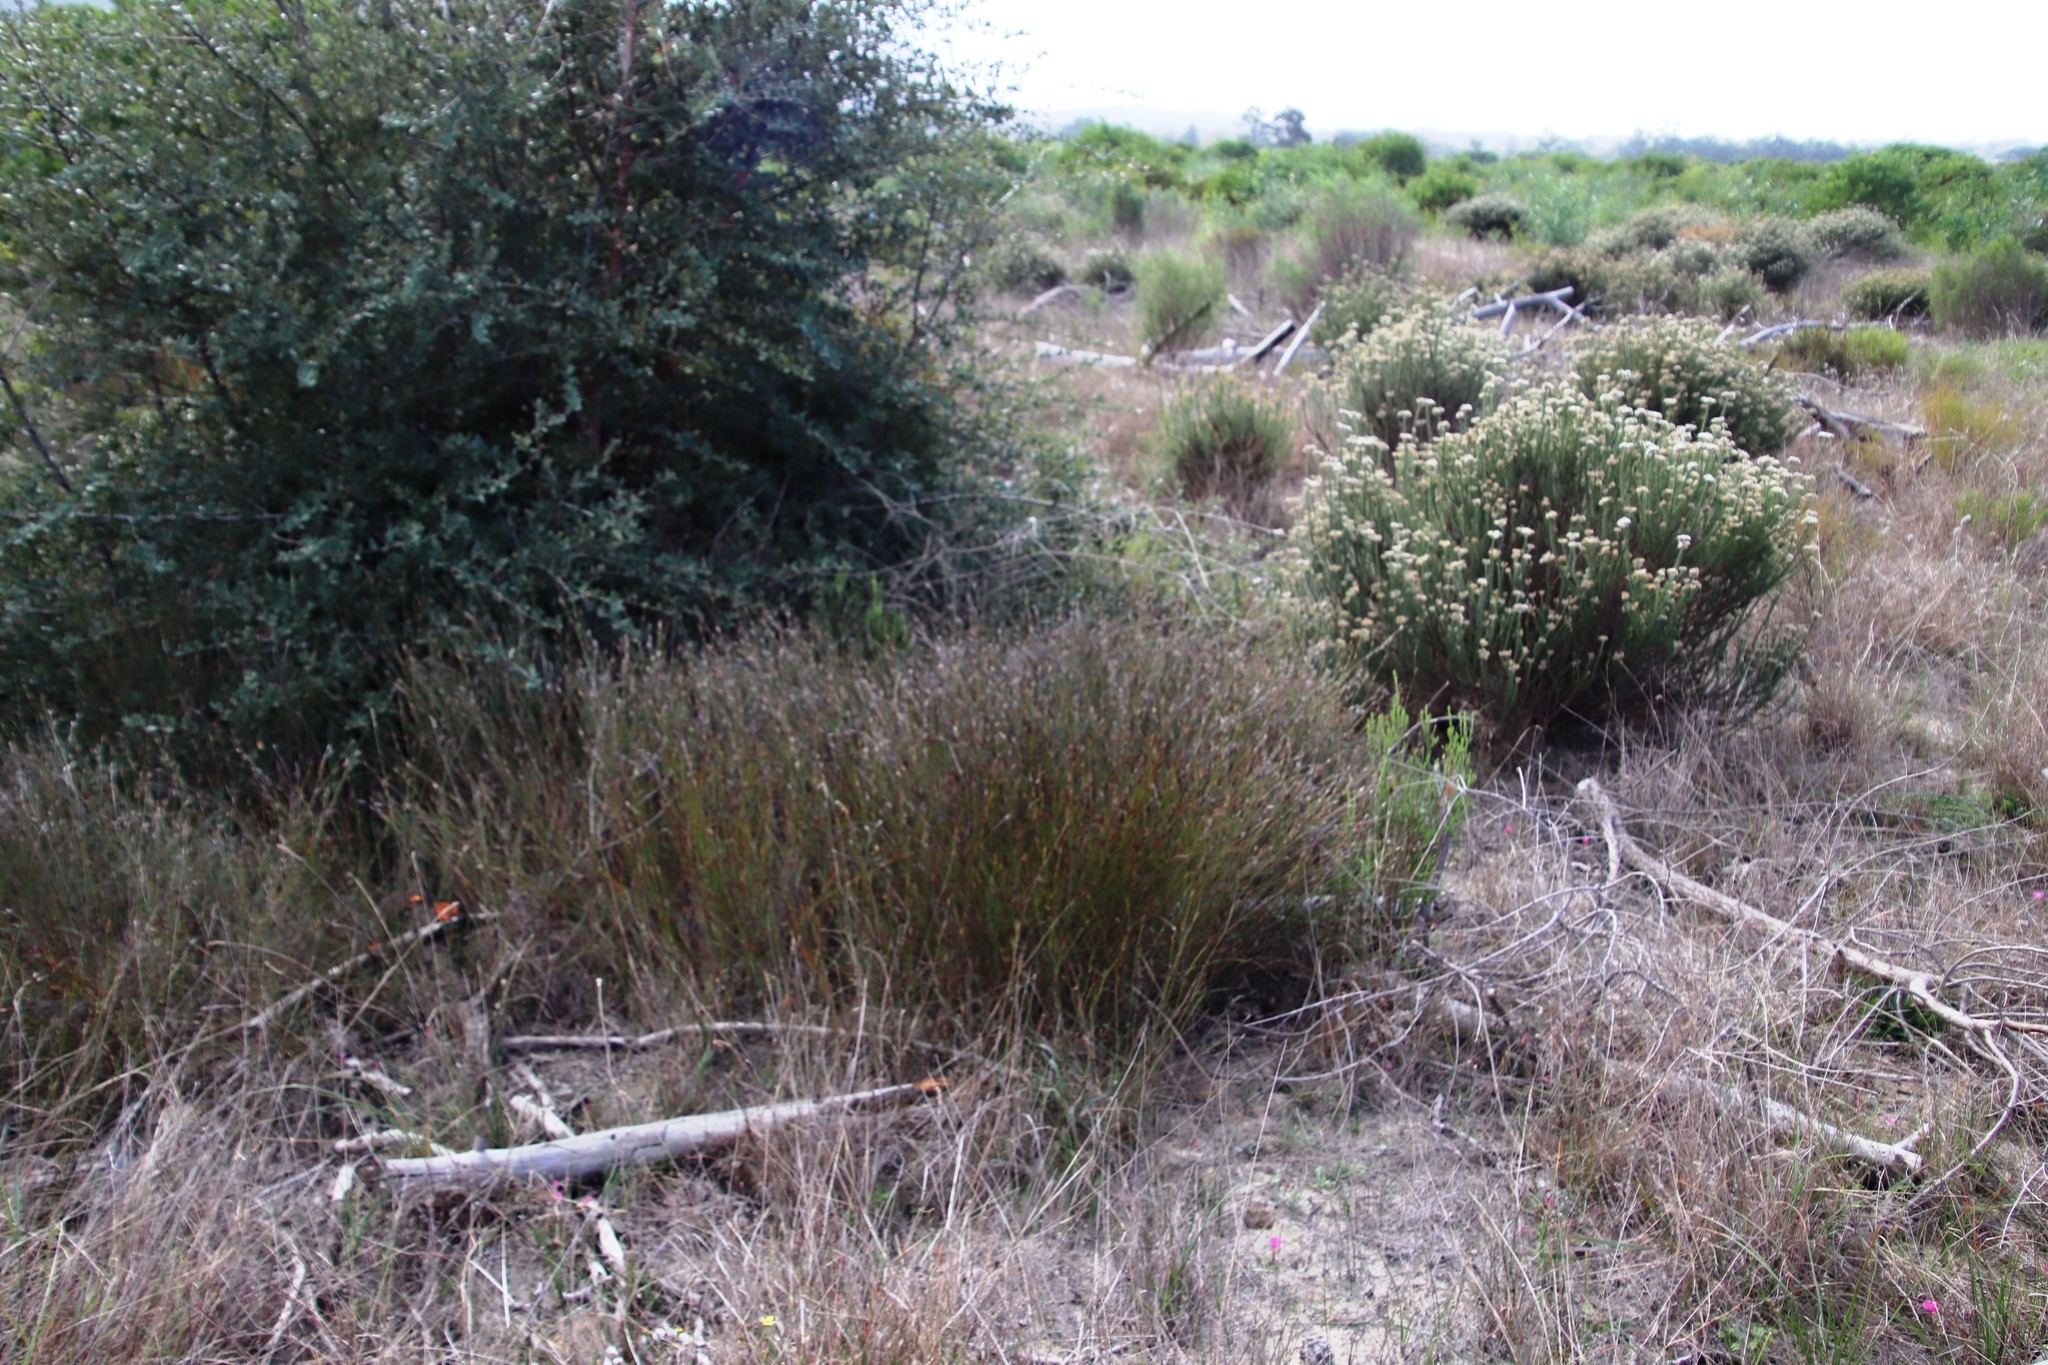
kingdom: Plantae
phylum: Tracheophyta
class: Liliopsida
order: Poales
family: Restionaceae
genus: Willdenowia
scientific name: Willdenowia sulcata
